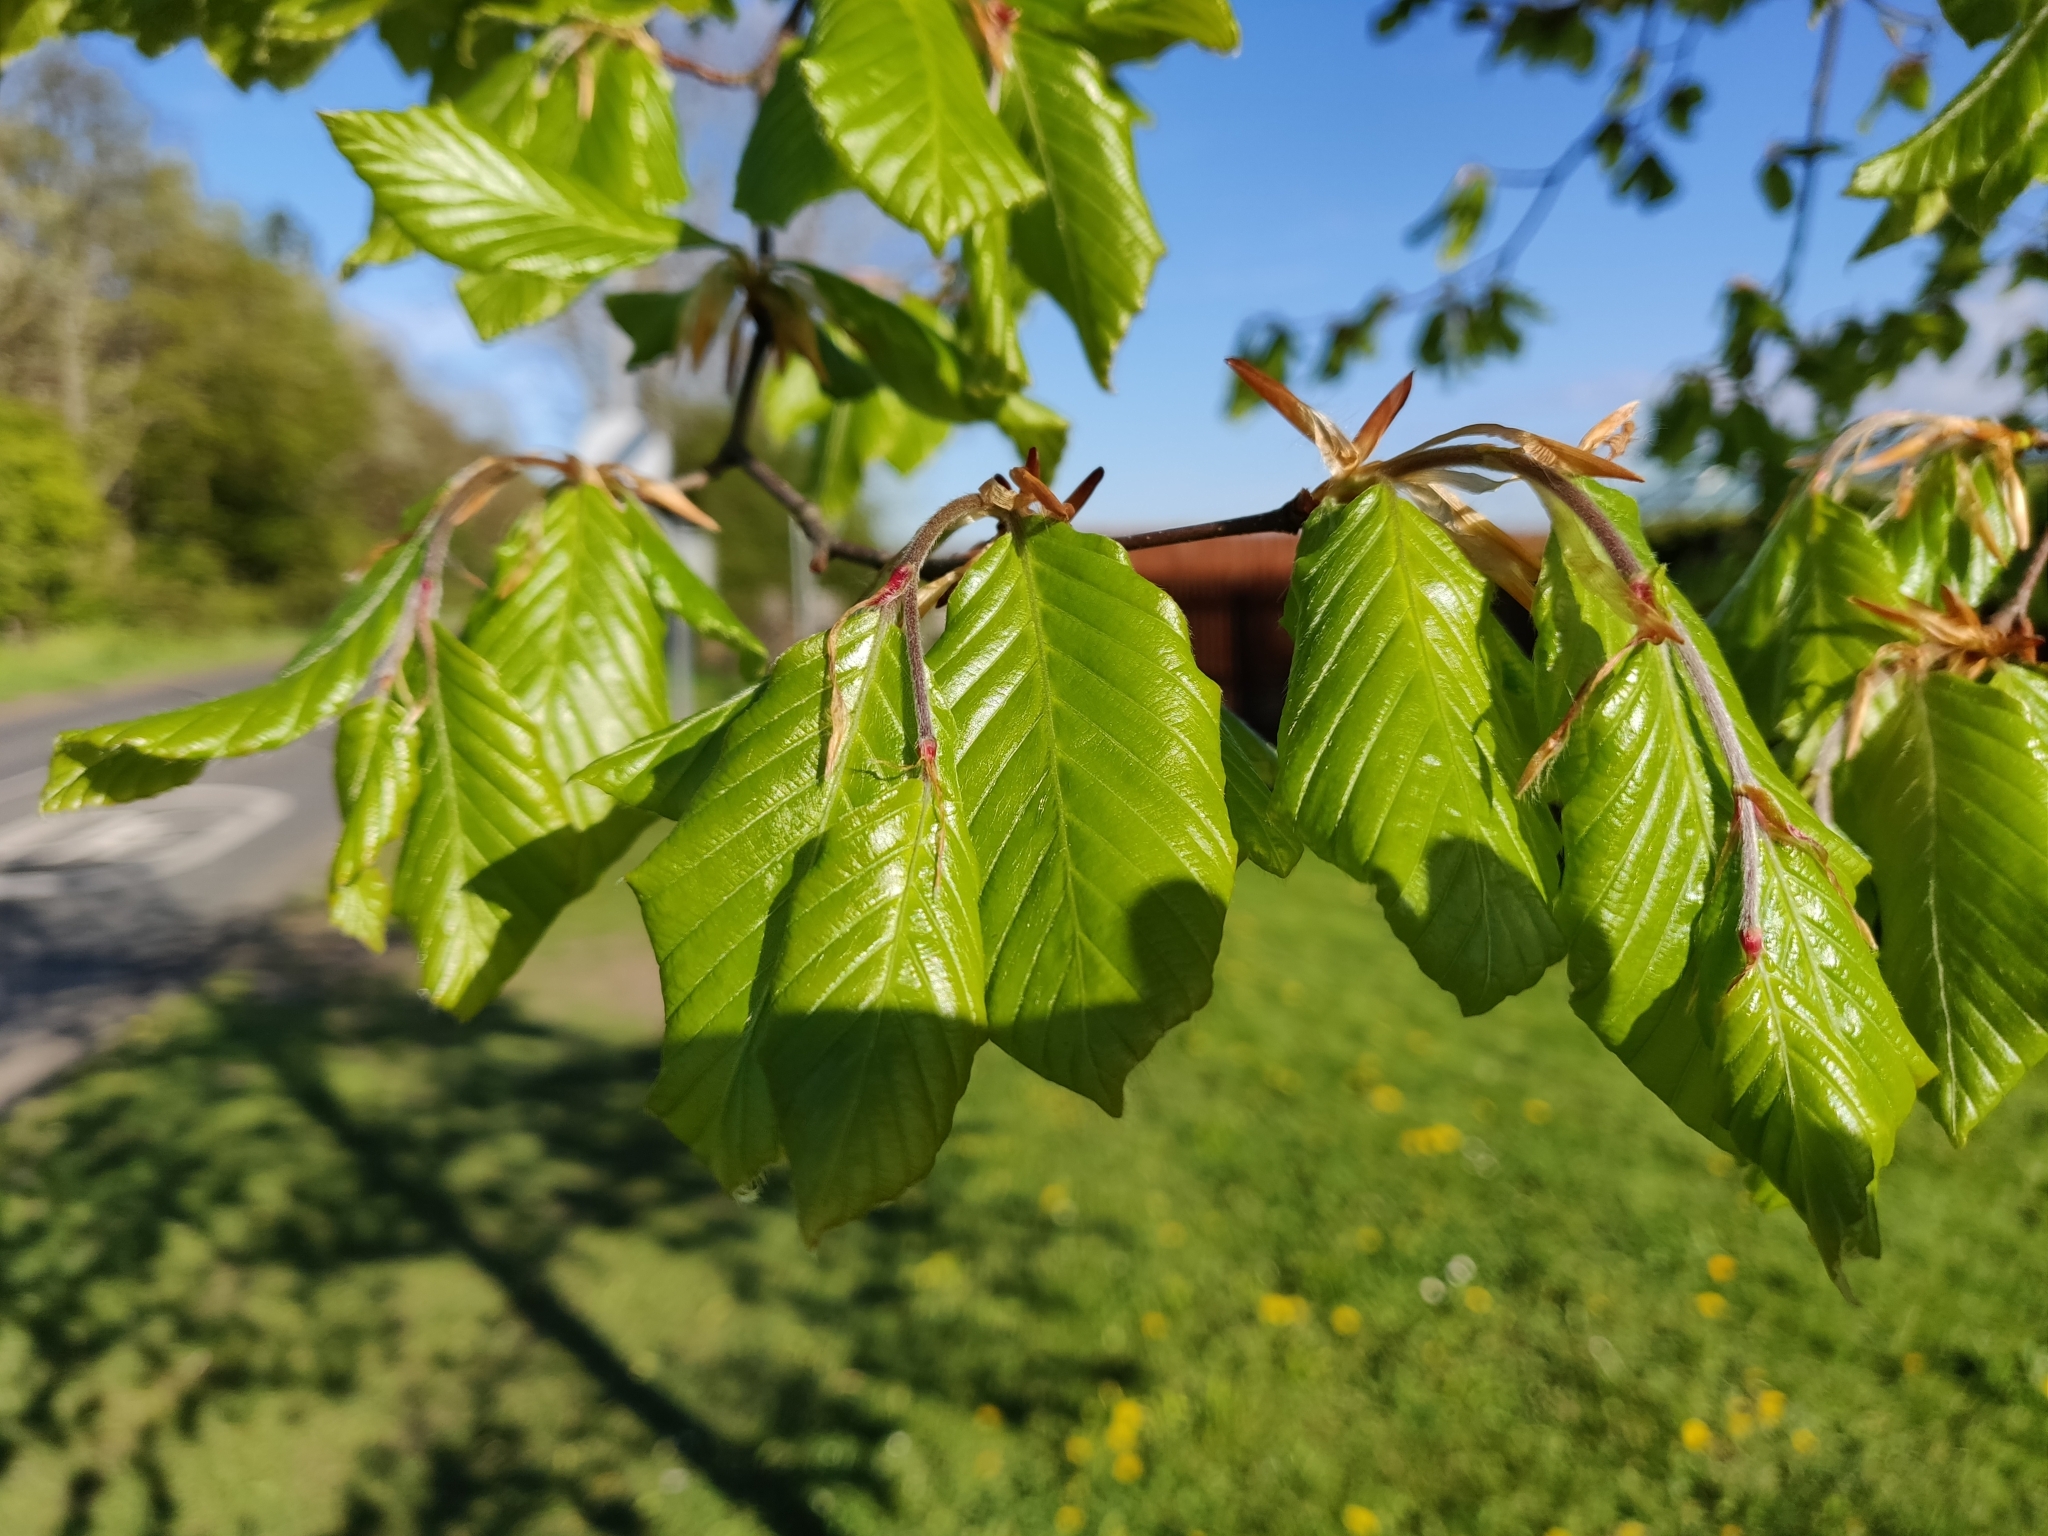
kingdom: Plantae
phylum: Tracheophyta
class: Magnoliopsida
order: Fagales
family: Fagaceae
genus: Fagus
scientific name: Fagus sylvatica
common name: Beech
